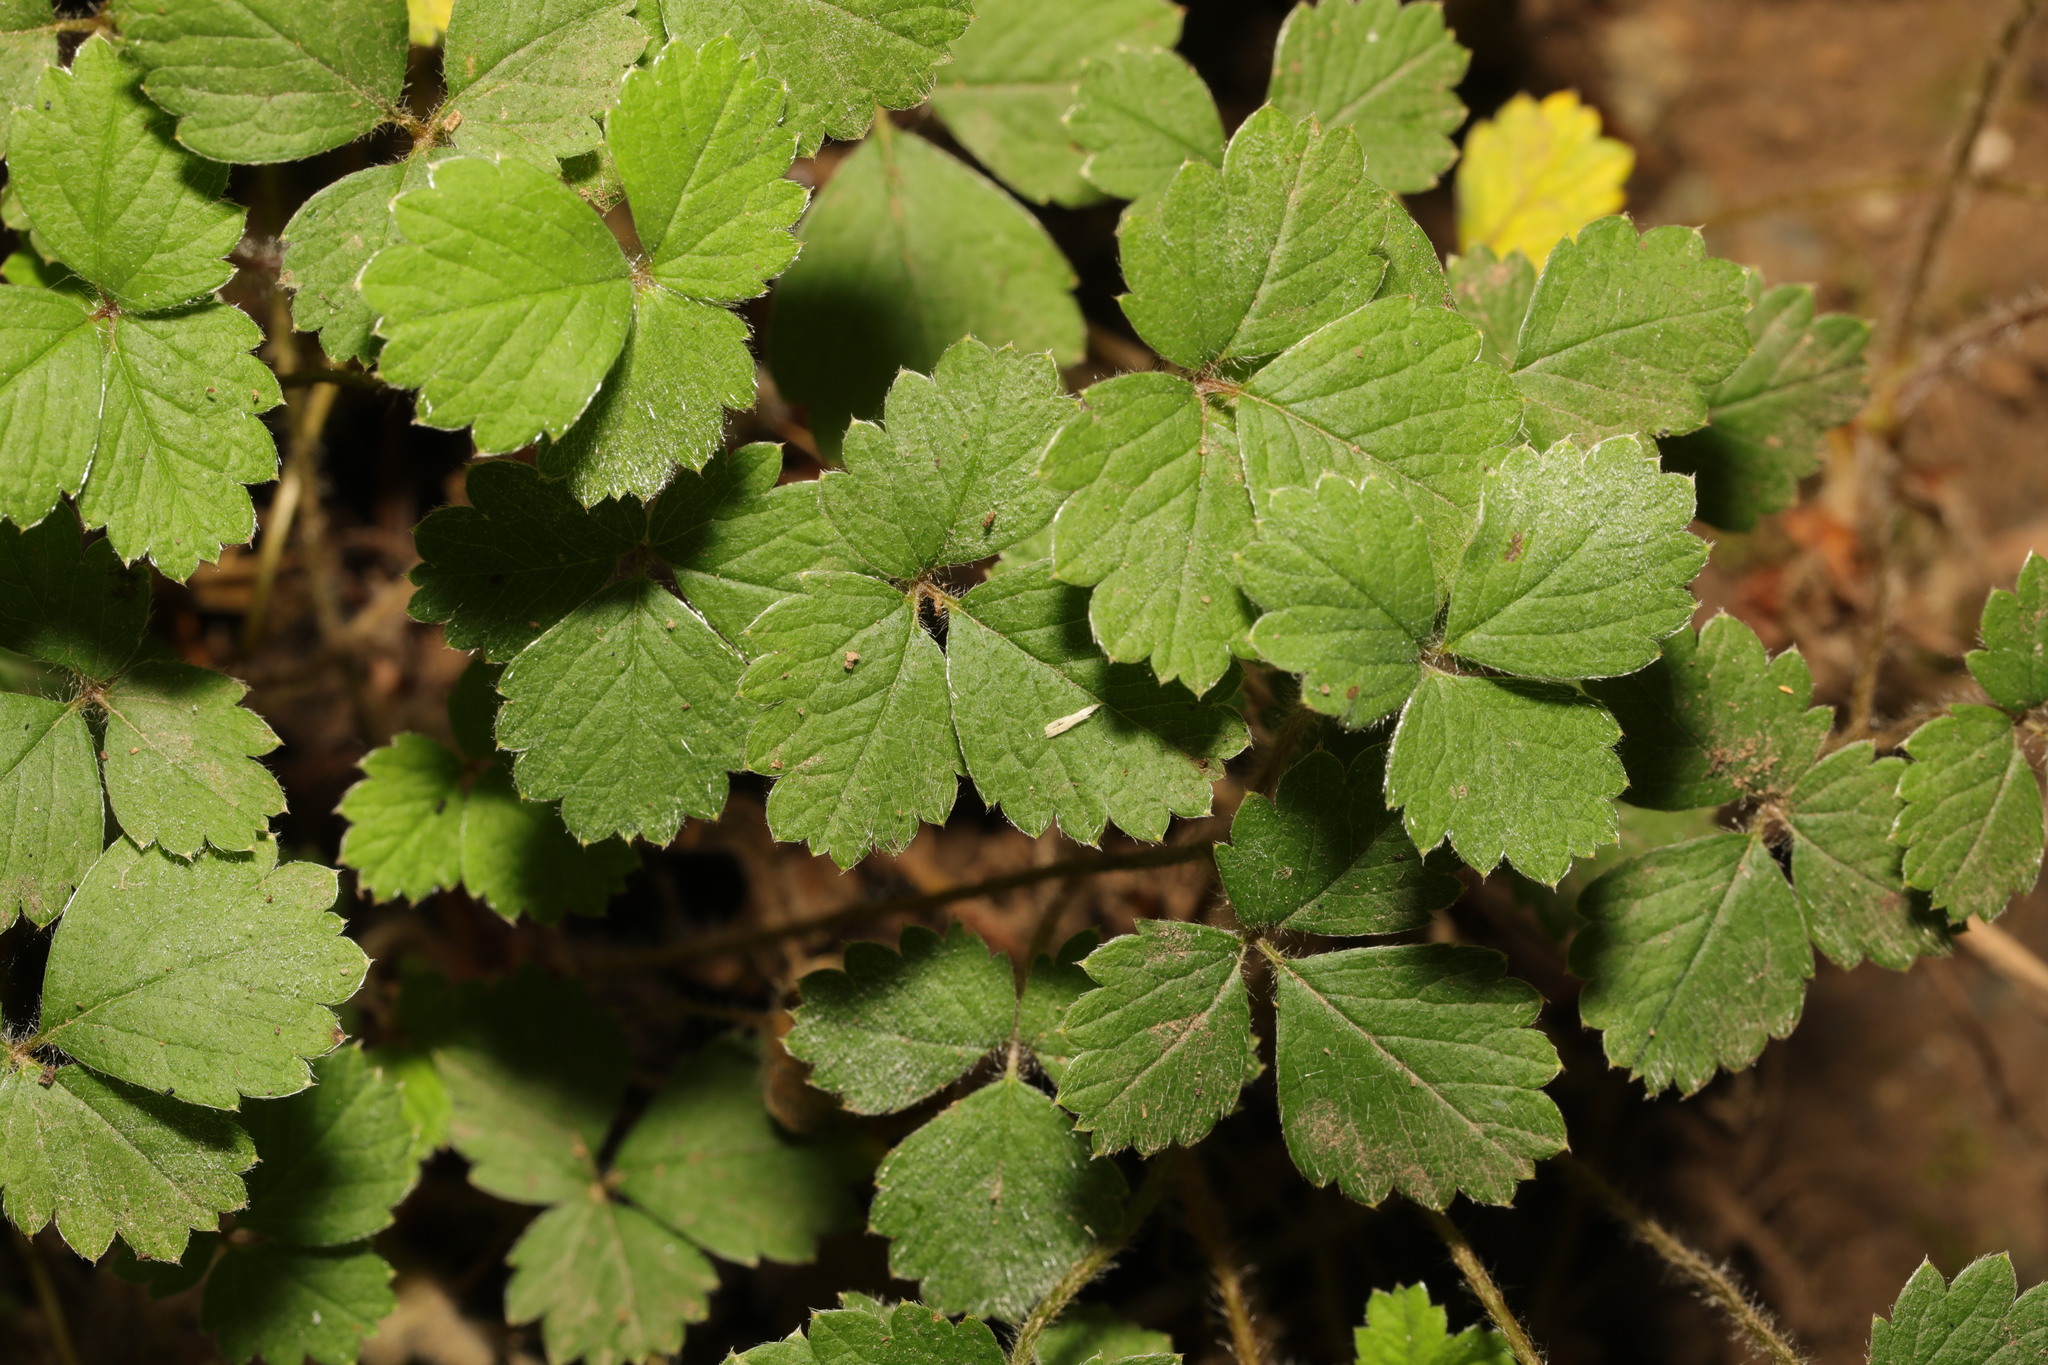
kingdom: Plantae
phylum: Tracheophyta
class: Magnoliopsida
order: Rosales
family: Rosaceae
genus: Potentilla
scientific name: Potentilla sterilis
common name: Barren strawberry
